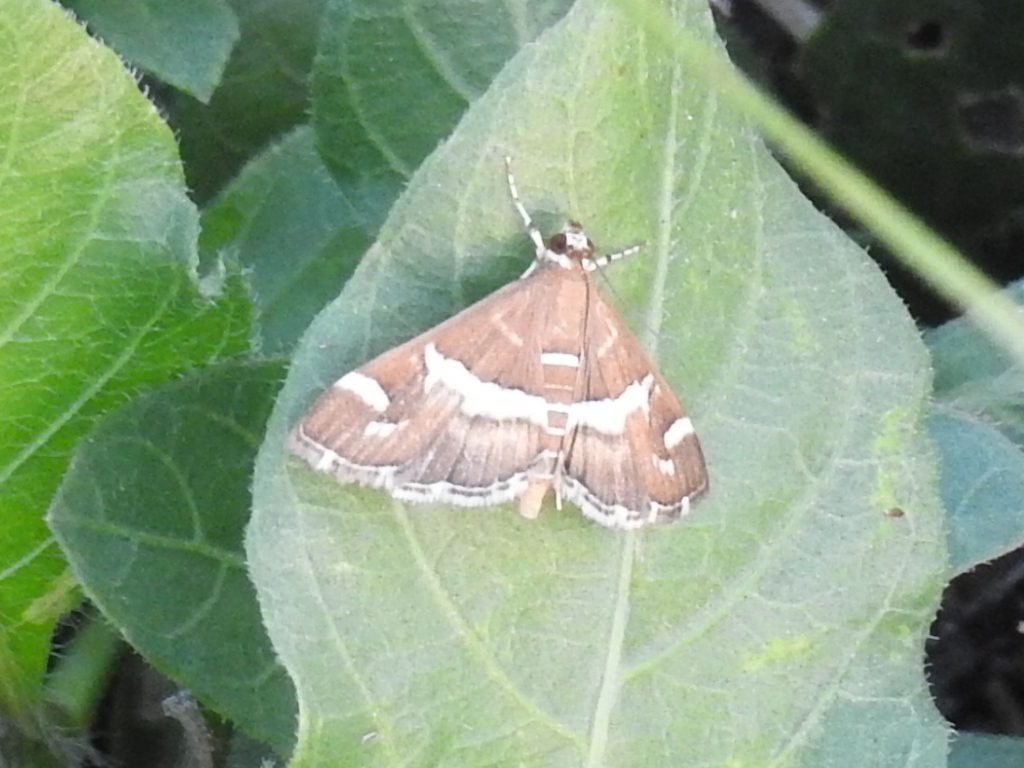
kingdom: Animalia
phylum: Arthropoda
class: Insecta
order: Lepidoptera
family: Crambidae
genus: Spoladea
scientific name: Spoladea recurvalis
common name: Beet webworm moth
